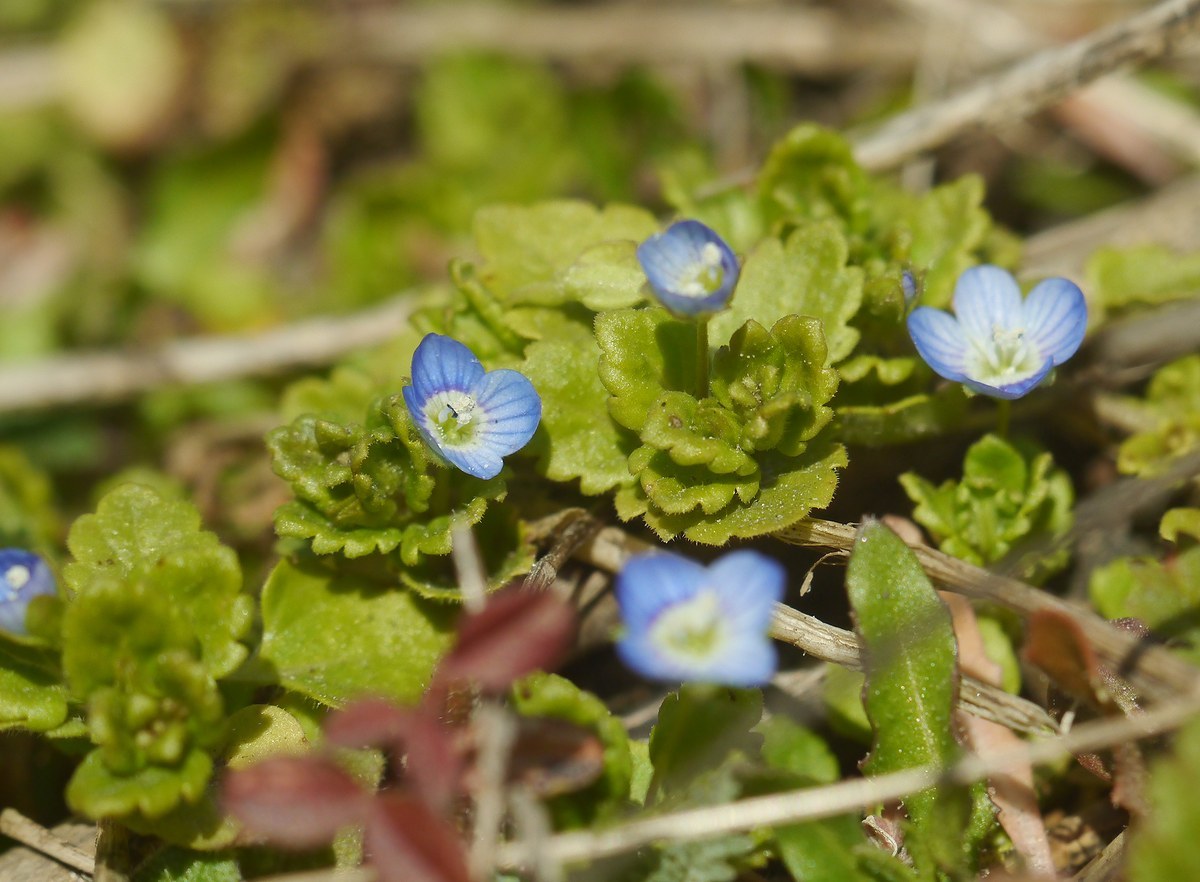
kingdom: Plantae
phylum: Tracheophyta
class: Magnoliopsida
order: Lamiales
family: Plantaginaceae
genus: Veronica
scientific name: Veronica polita
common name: Grey field-speedwell
